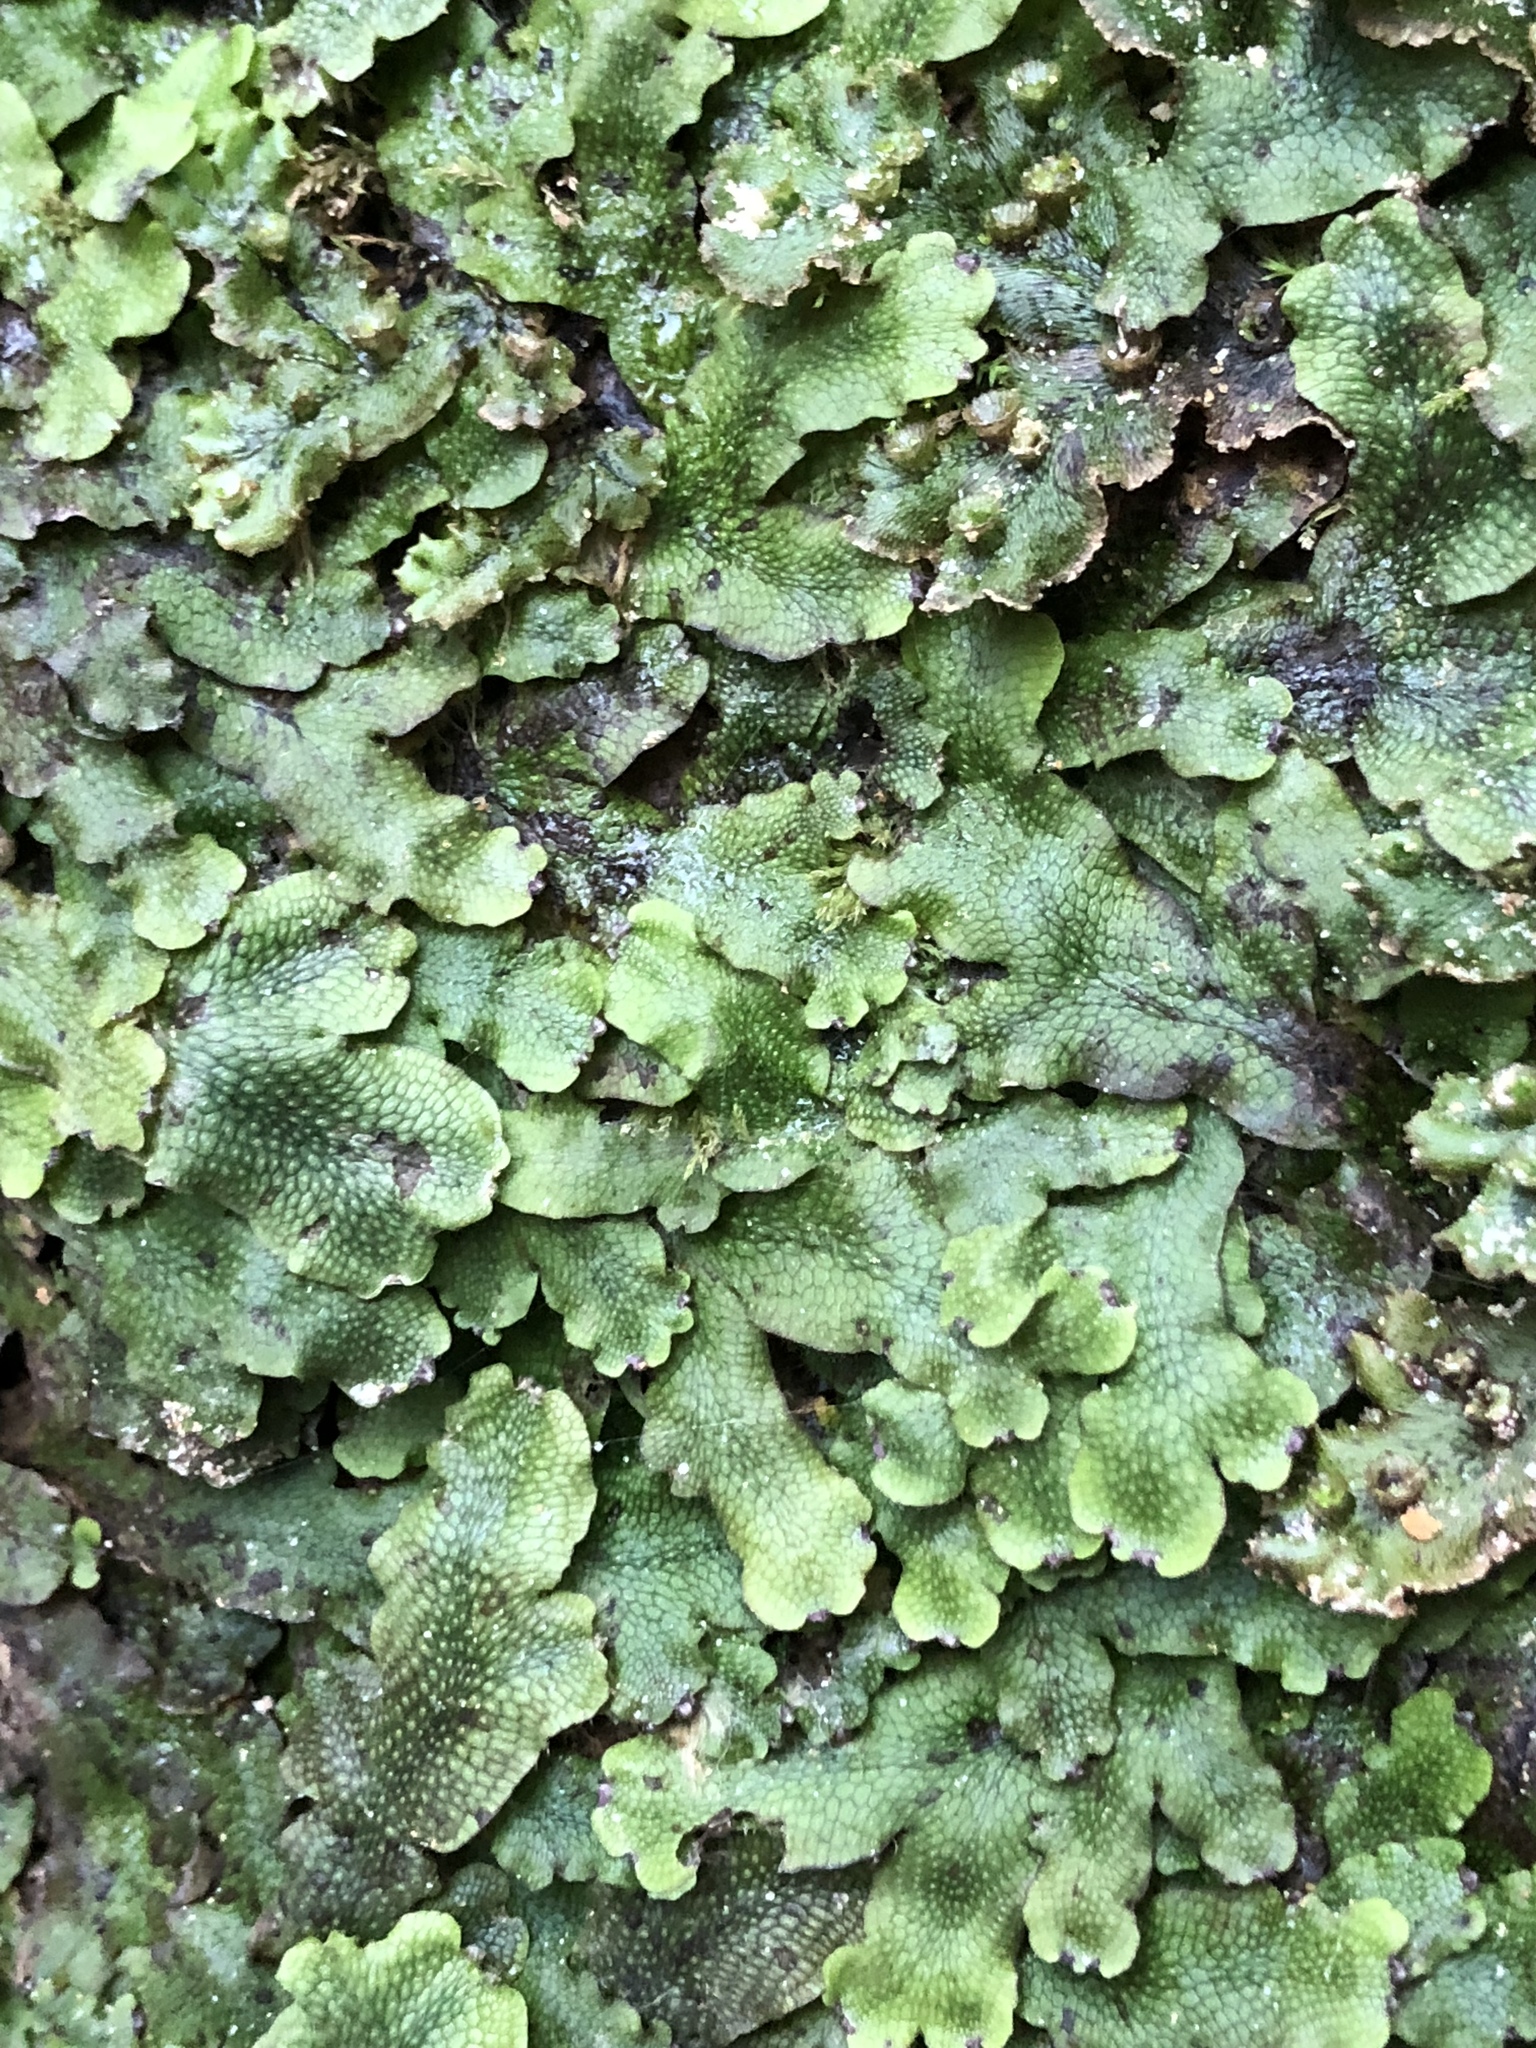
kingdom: Plantae
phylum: Marchantiophyta
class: Marchantiopsida
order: Marchantiales
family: Conocephalaceae
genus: Conocephalum
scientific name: Conocephalum salebrosum
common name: Cat-tongue liverwort
